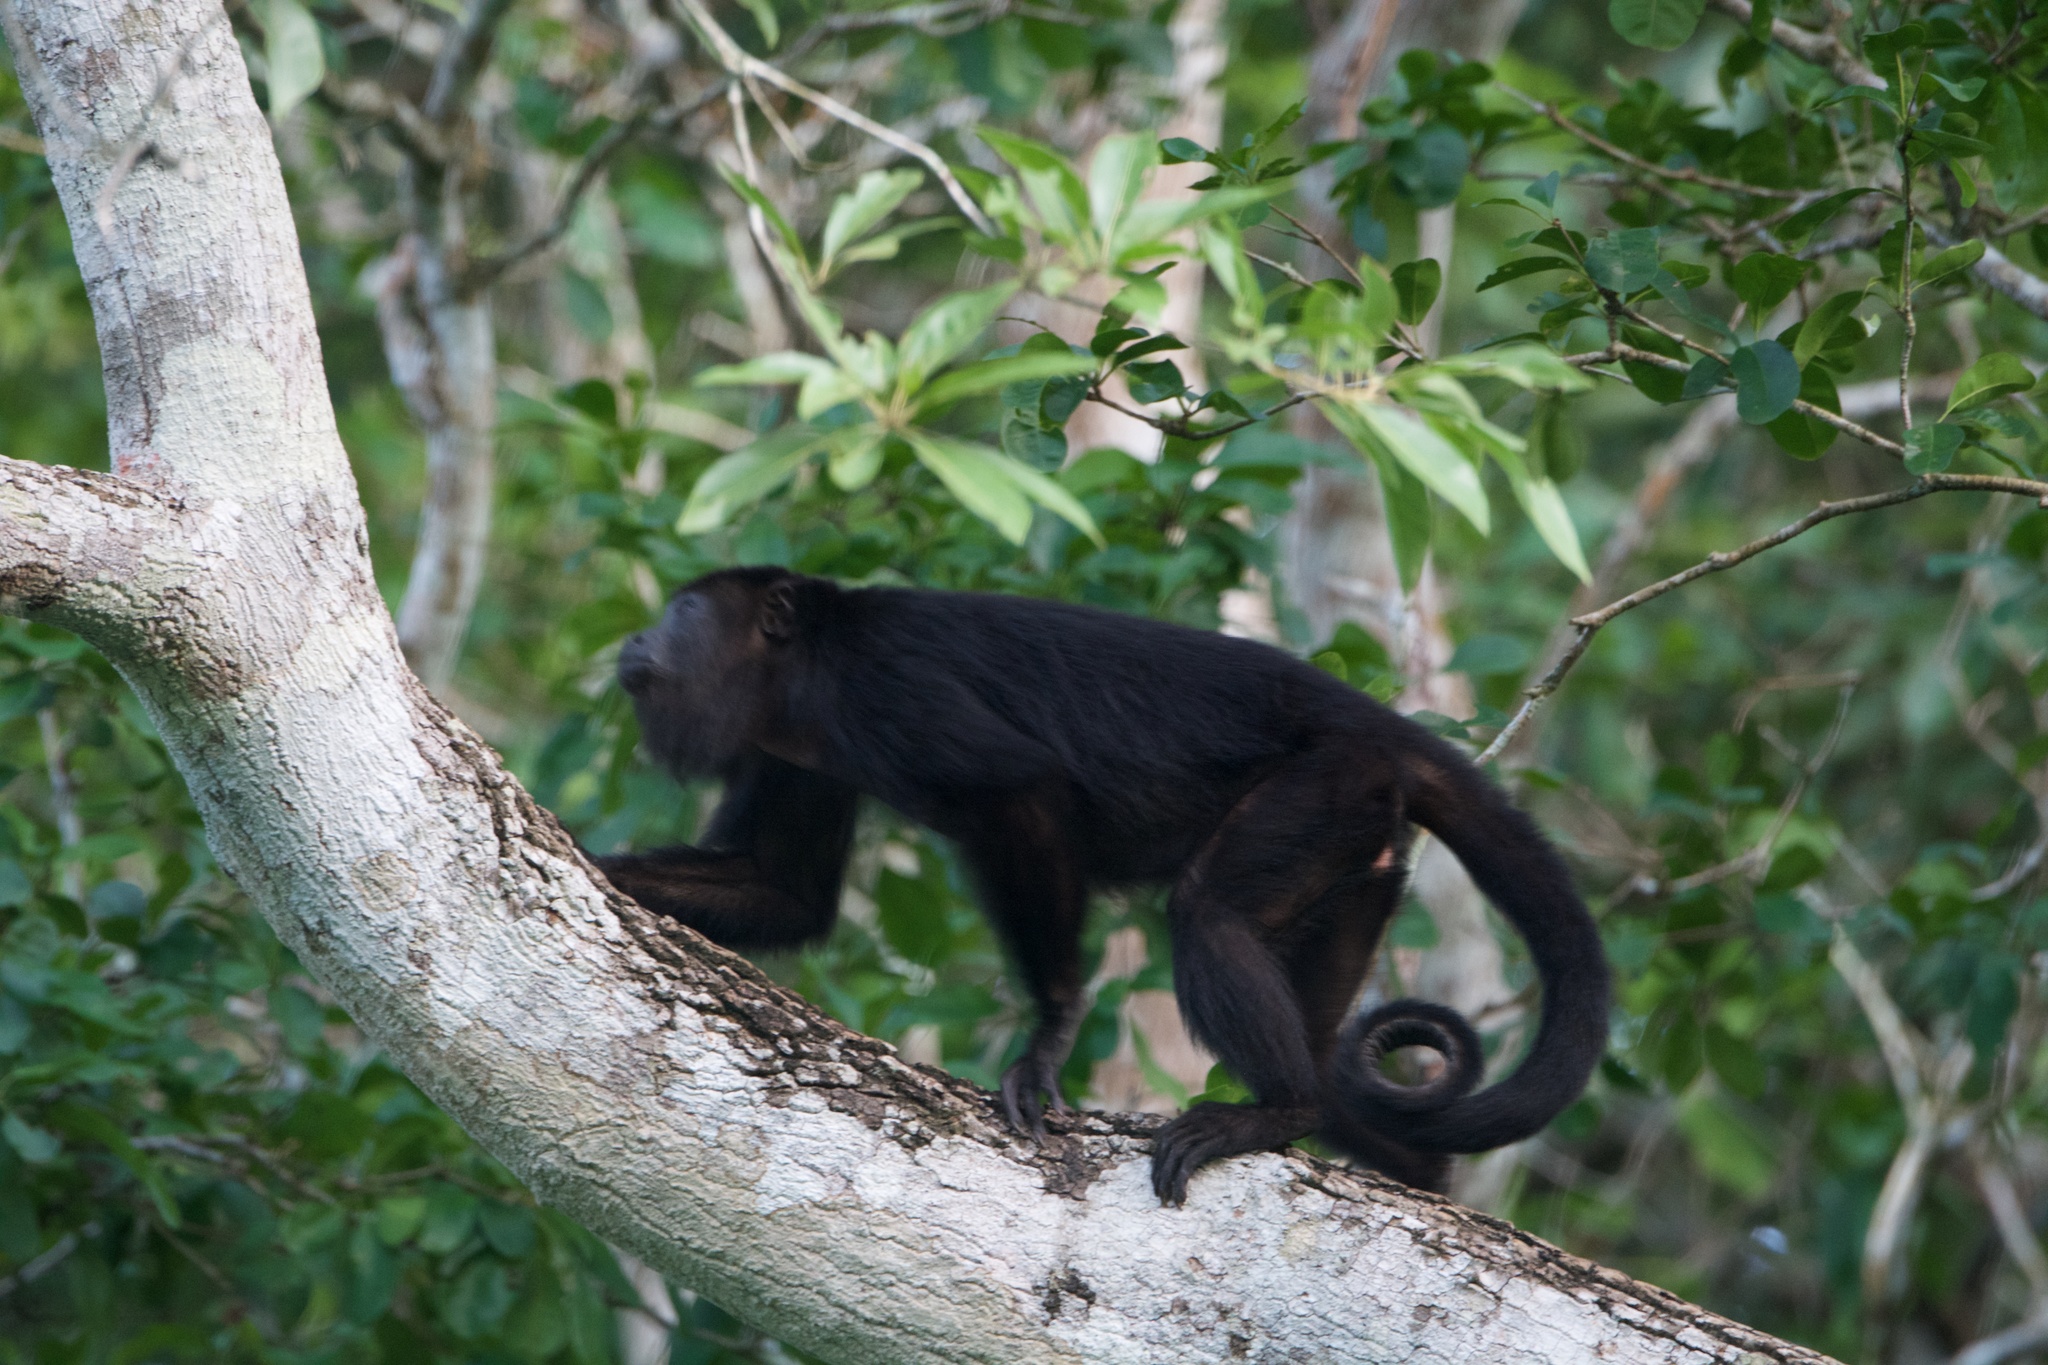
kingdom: Animalia
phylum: Chordata
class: Mammalia
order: Primates
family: Atelidae
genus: Alouatta
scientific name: Alouatta pigra
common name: Guatemalan black howler
